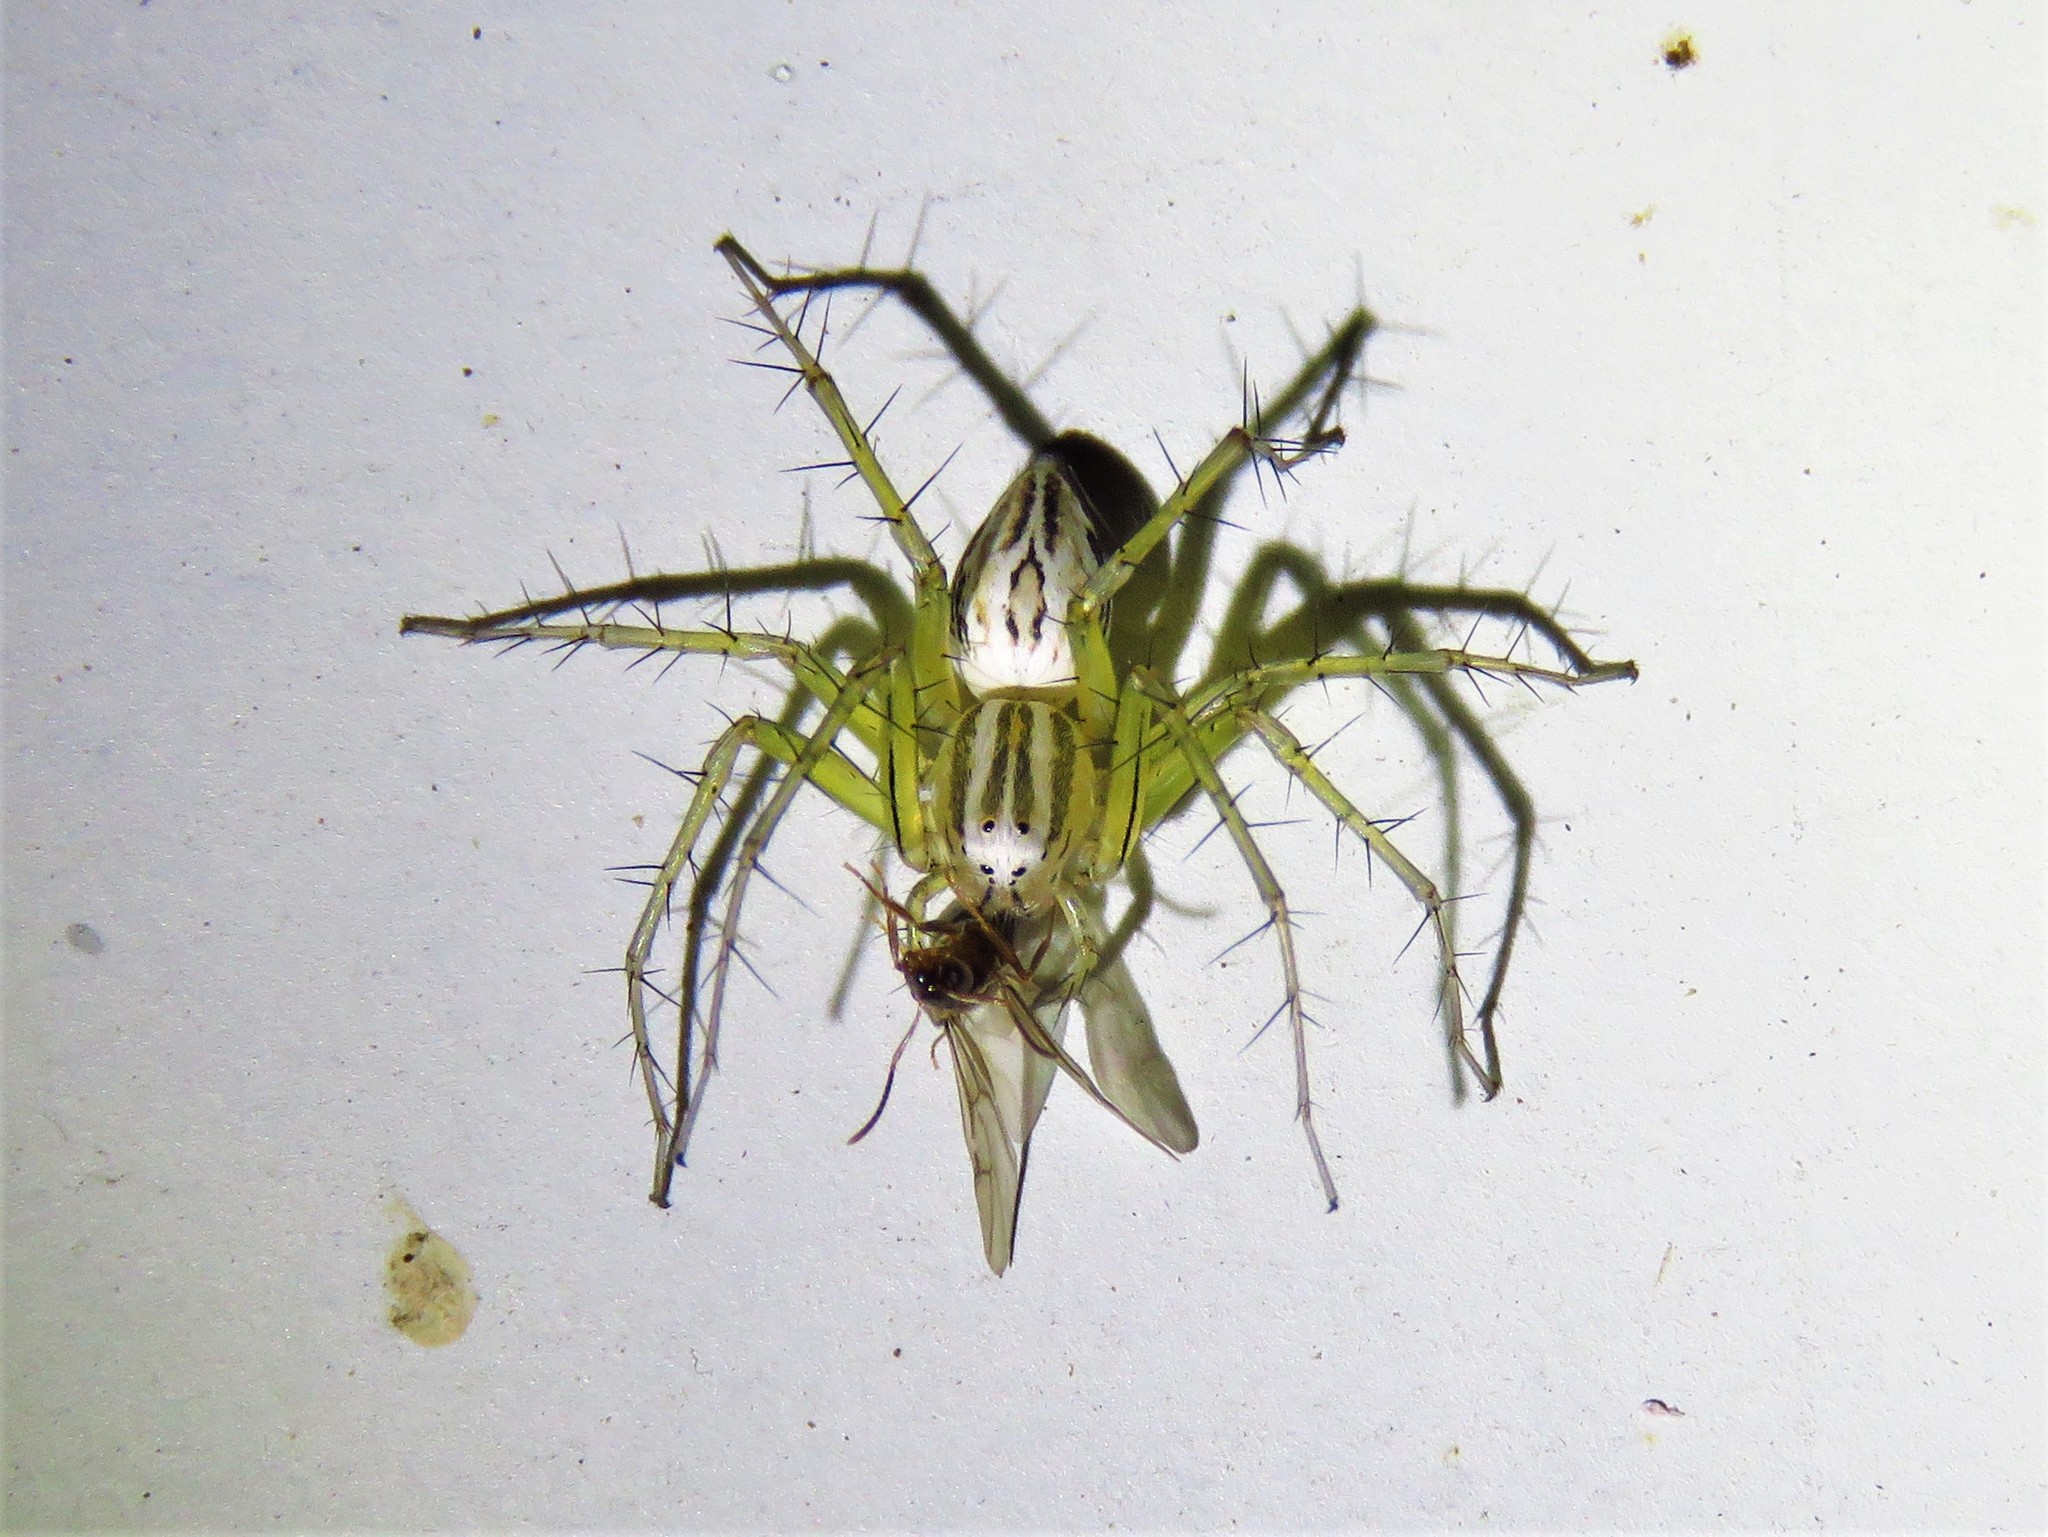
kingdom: Animalia
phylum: Arthropoda
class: Arachnida
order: Araneae
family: Oxyopidae
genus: Oxyopes
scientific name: Oxyopes salticus
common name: Lynx spiders
